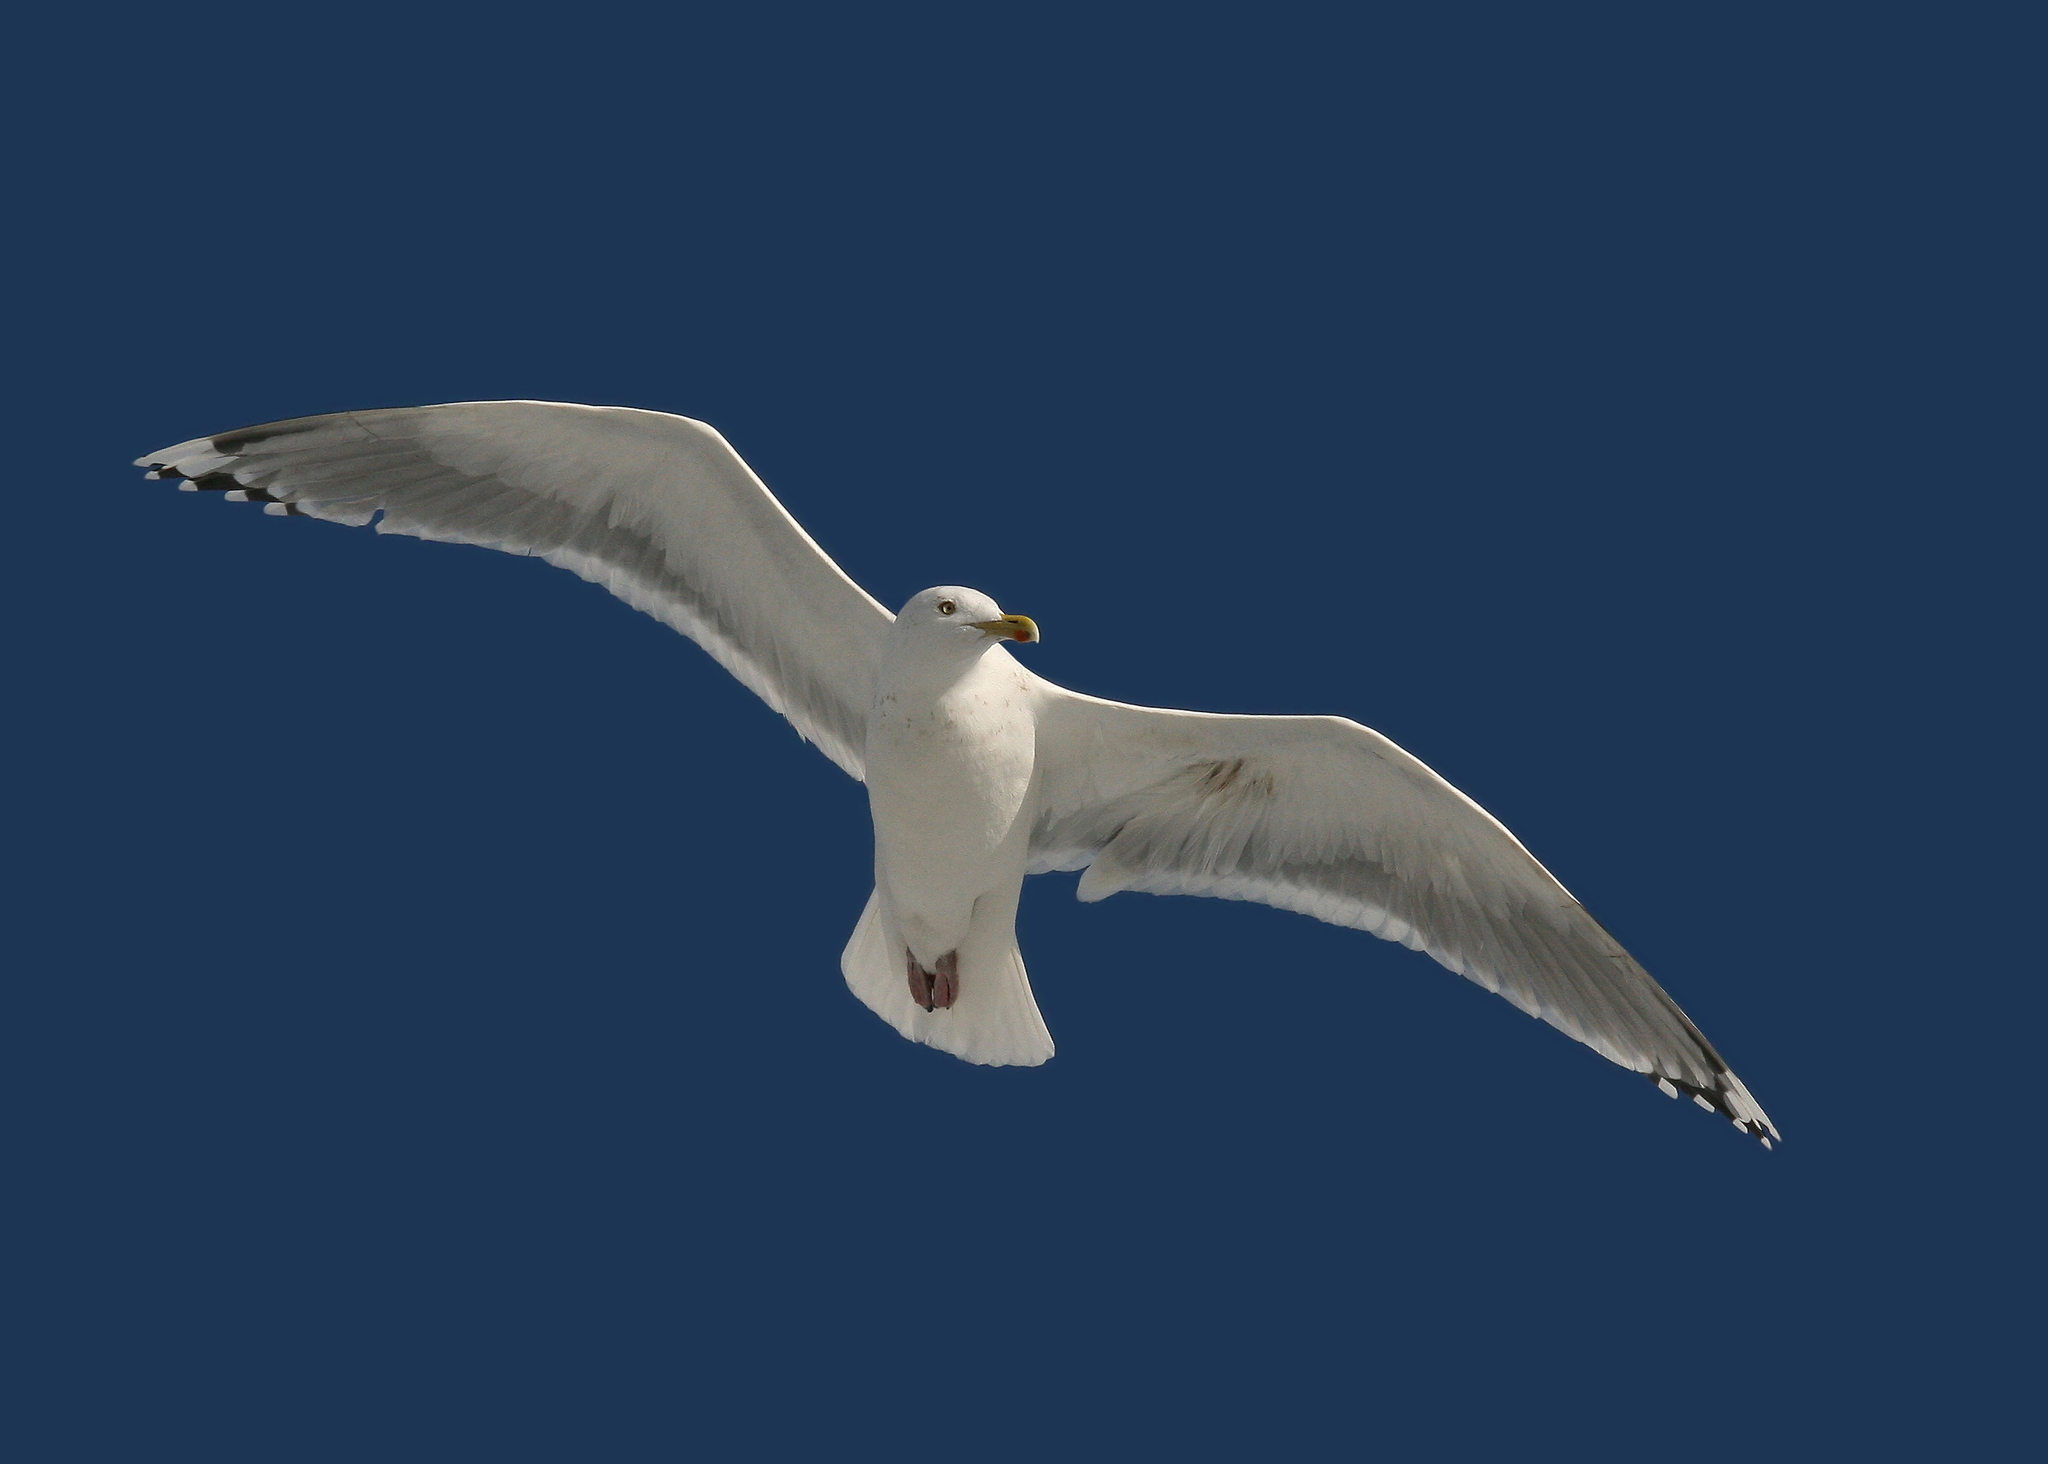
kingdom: Animalia
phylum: Chordata
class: Aves
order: Charadriiformes
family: Laridae
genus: Larus
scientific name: Larus argentatus
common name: Herring gull
